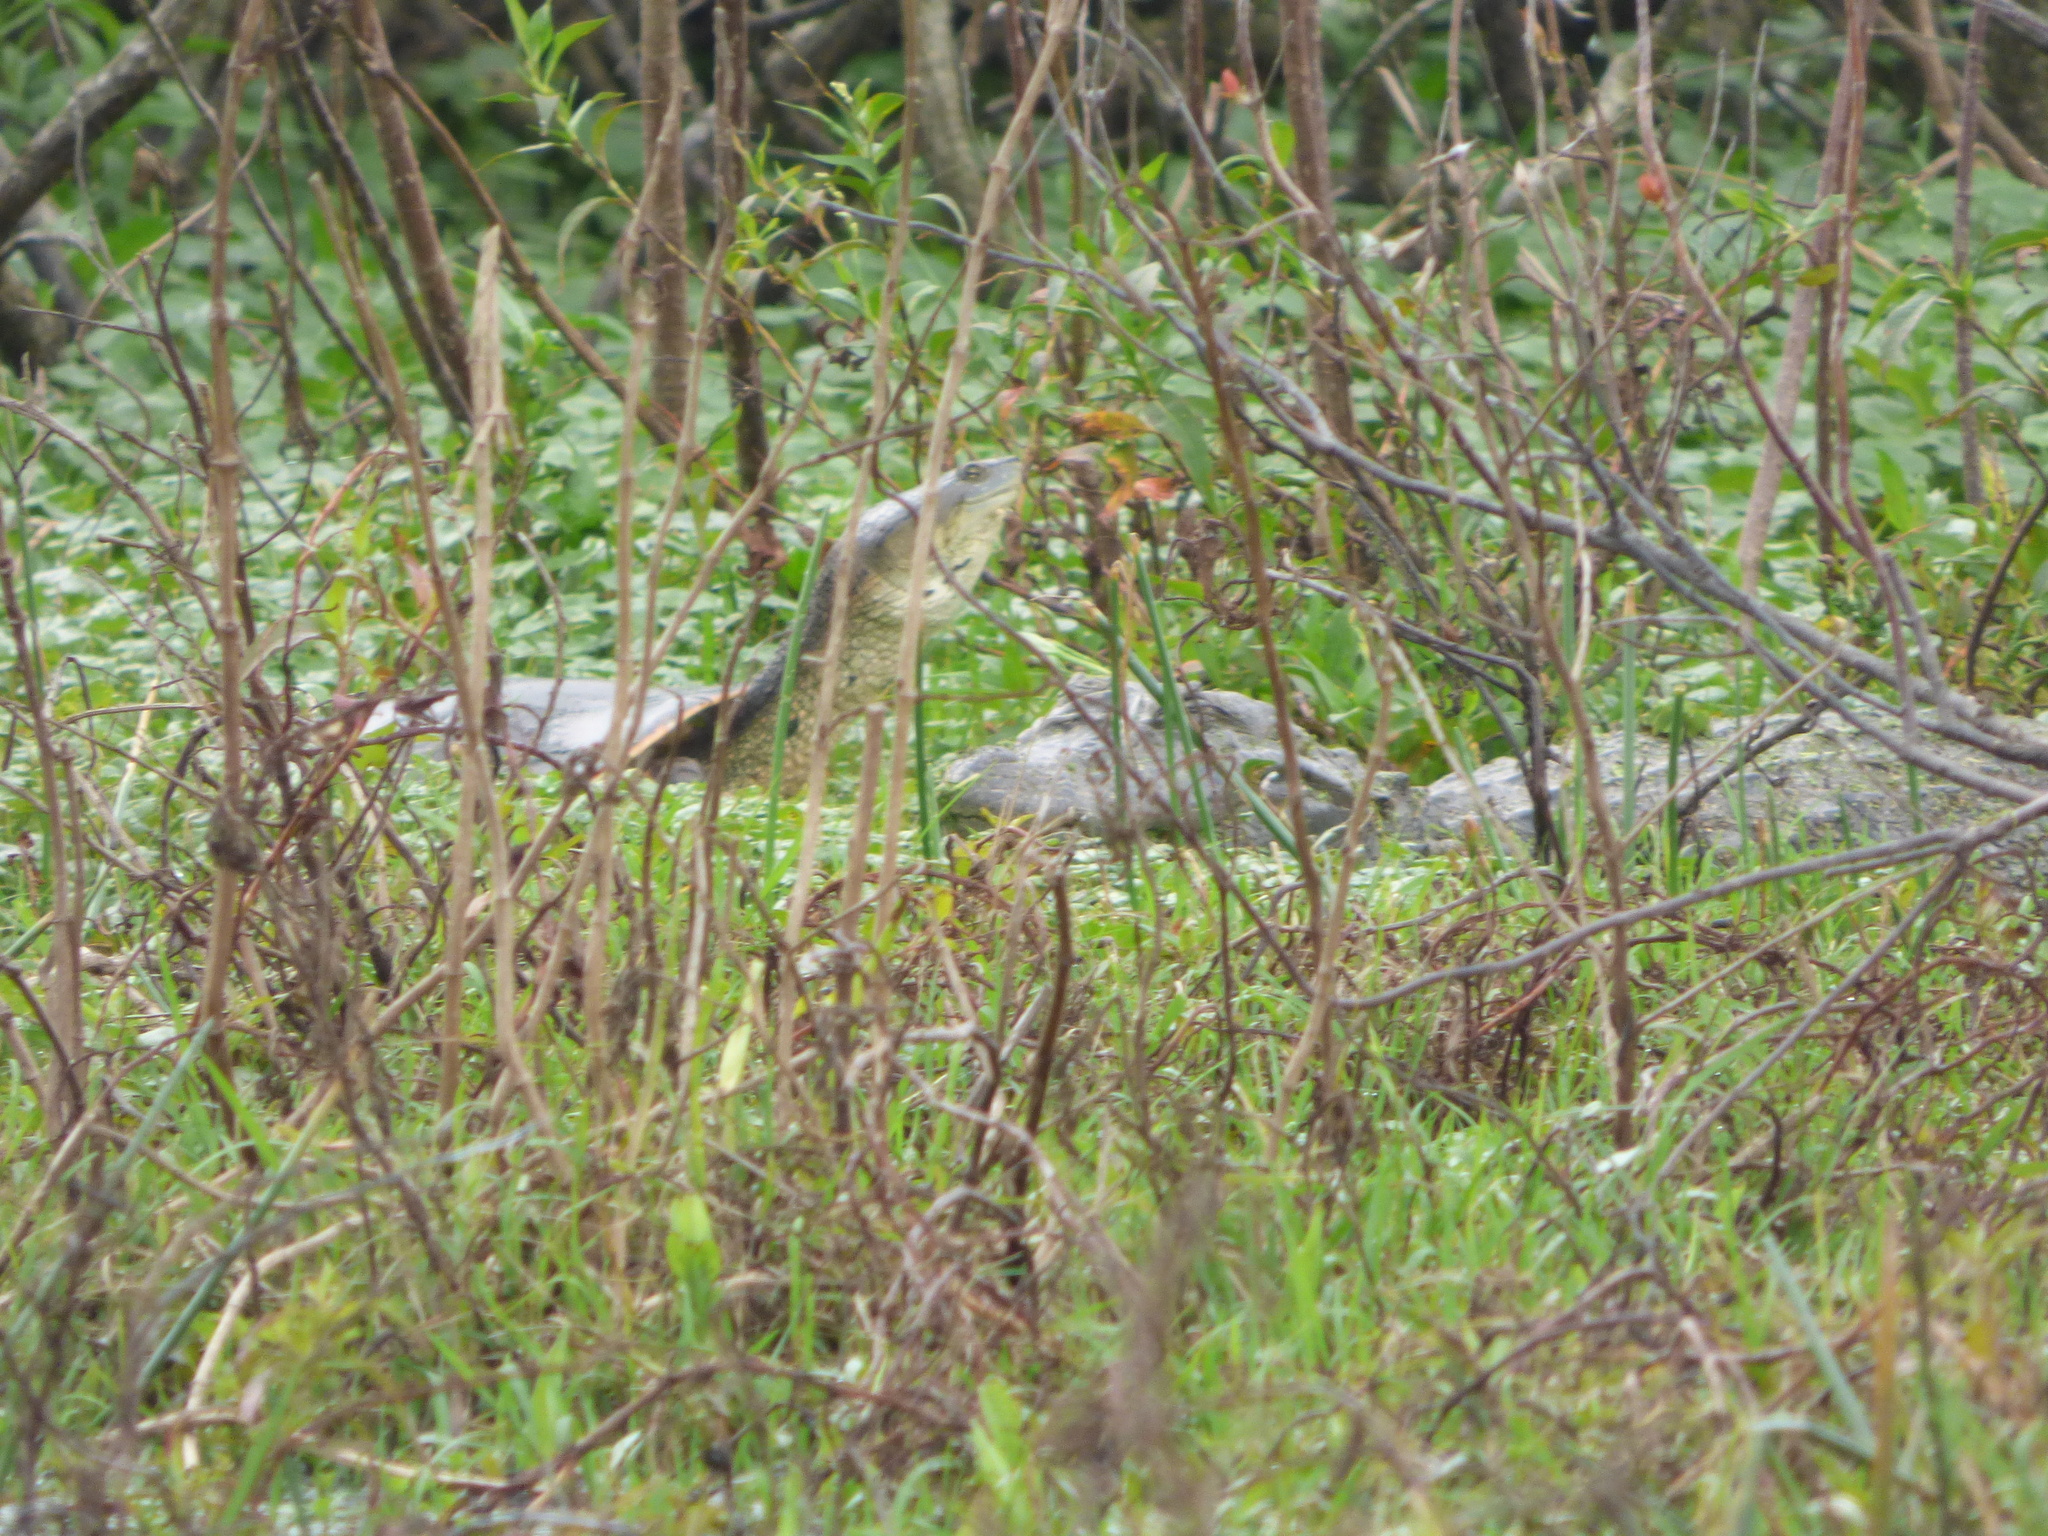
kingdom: Animalia
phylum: Chordata
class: Testudines
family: Chelidae
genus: Phrynops
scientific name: Phrynops hilarii
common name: Side-necked turtle of saint hillaire
